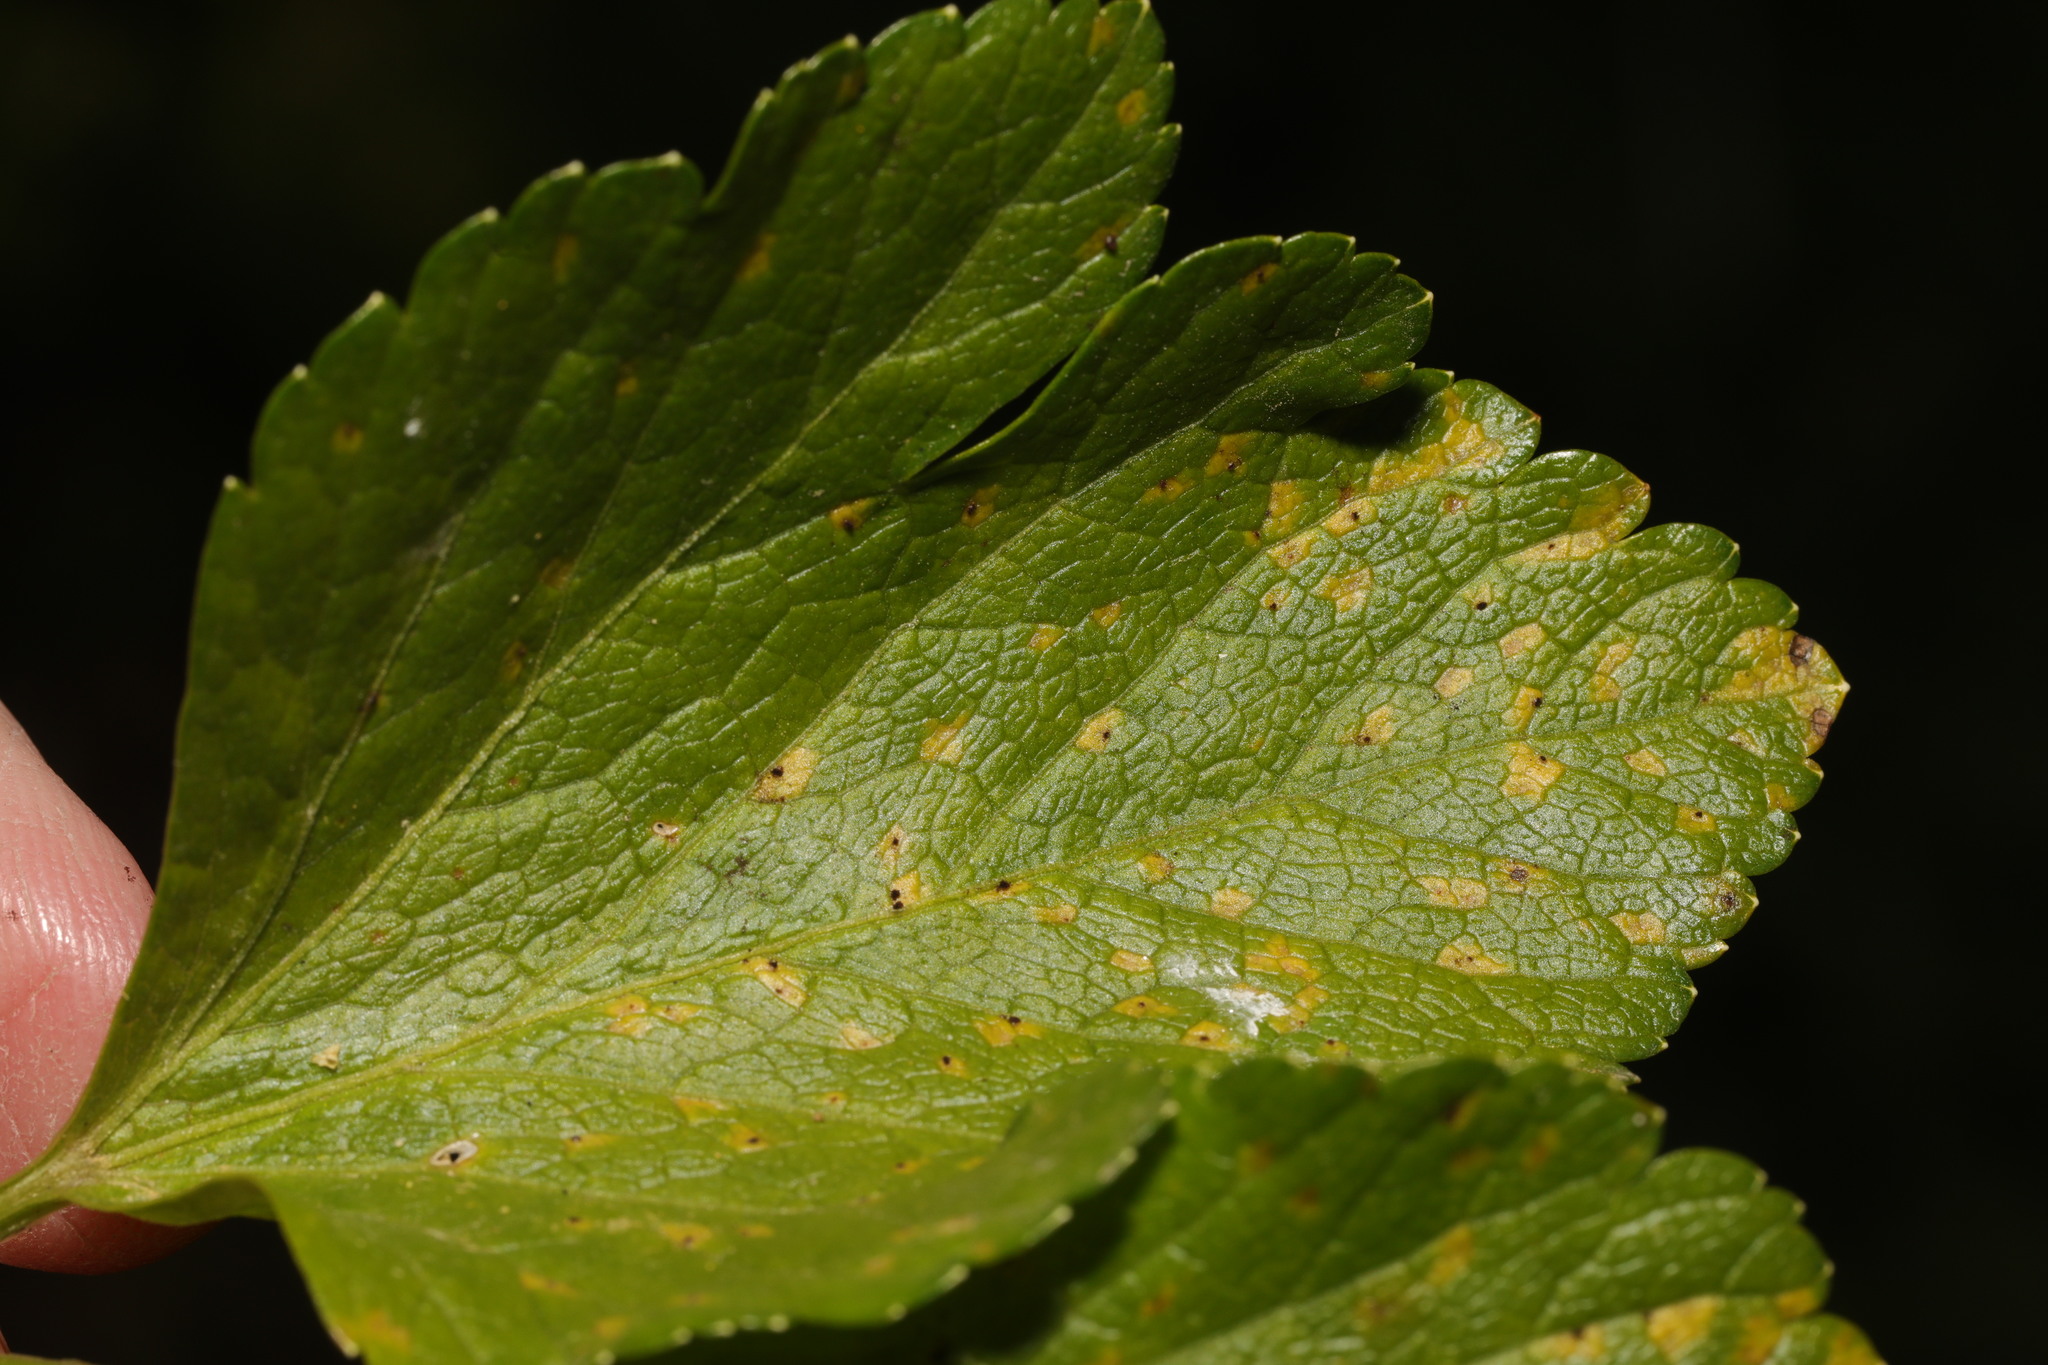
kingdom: Fungi
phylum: Basidiomycota
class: Pucciniomycetes
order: Pucciniales
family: Pucciniaceae
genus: Puccinia
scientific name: Puccinia smyrnii
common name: Alexanders rust
